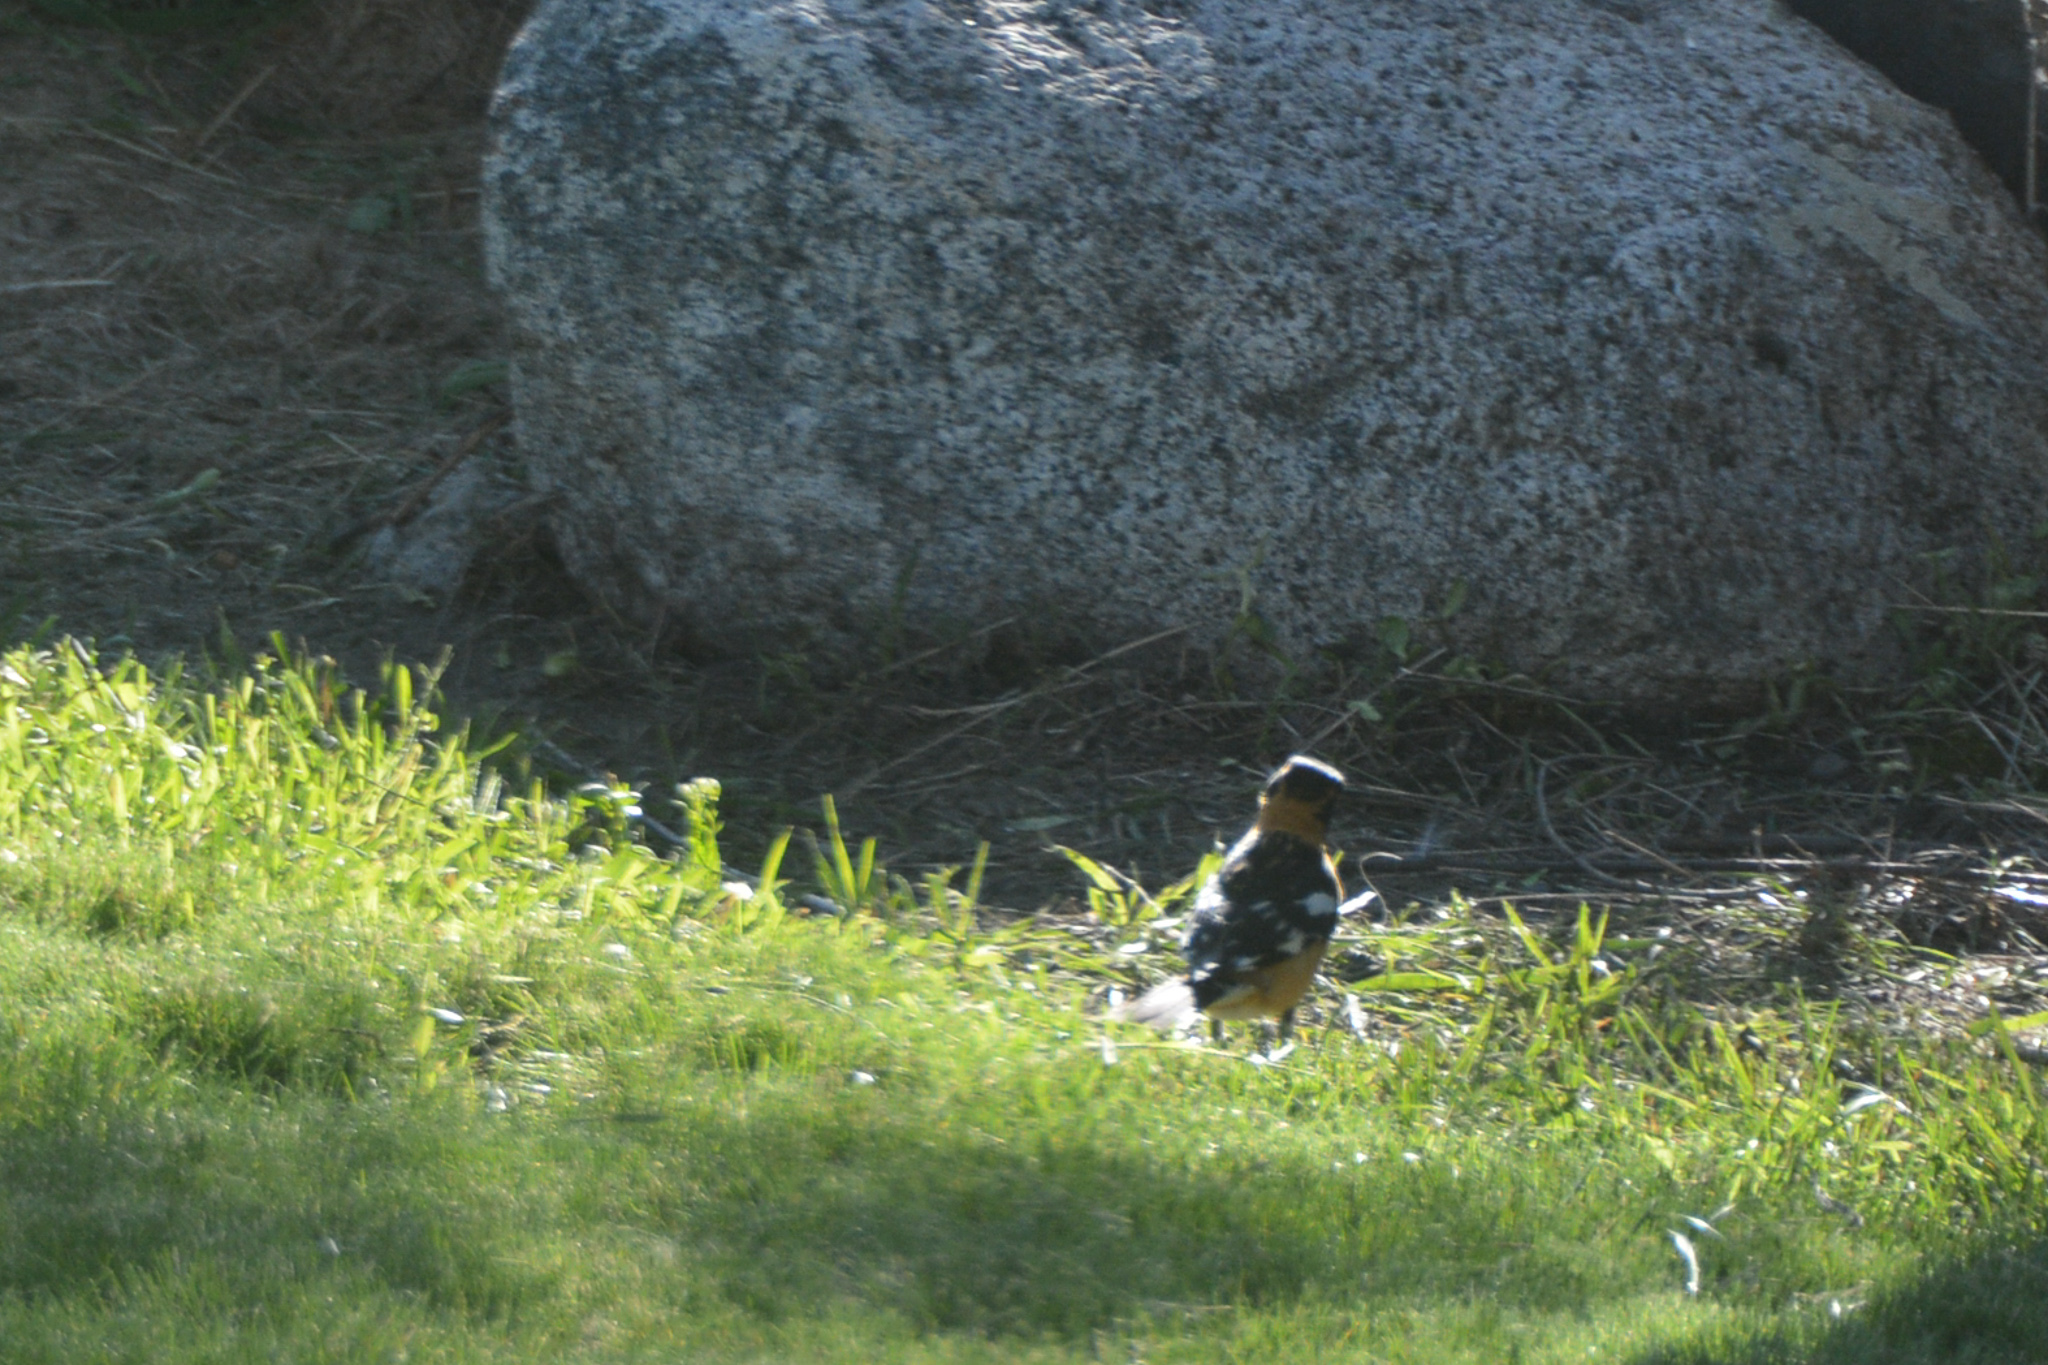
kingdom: Animalia
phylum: Chordata
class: Aves
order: Passeriformes
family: Cardinalidae
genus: Pheucticus
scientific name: Pheucticus melanocephalus
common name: Black-headed grosbeak
